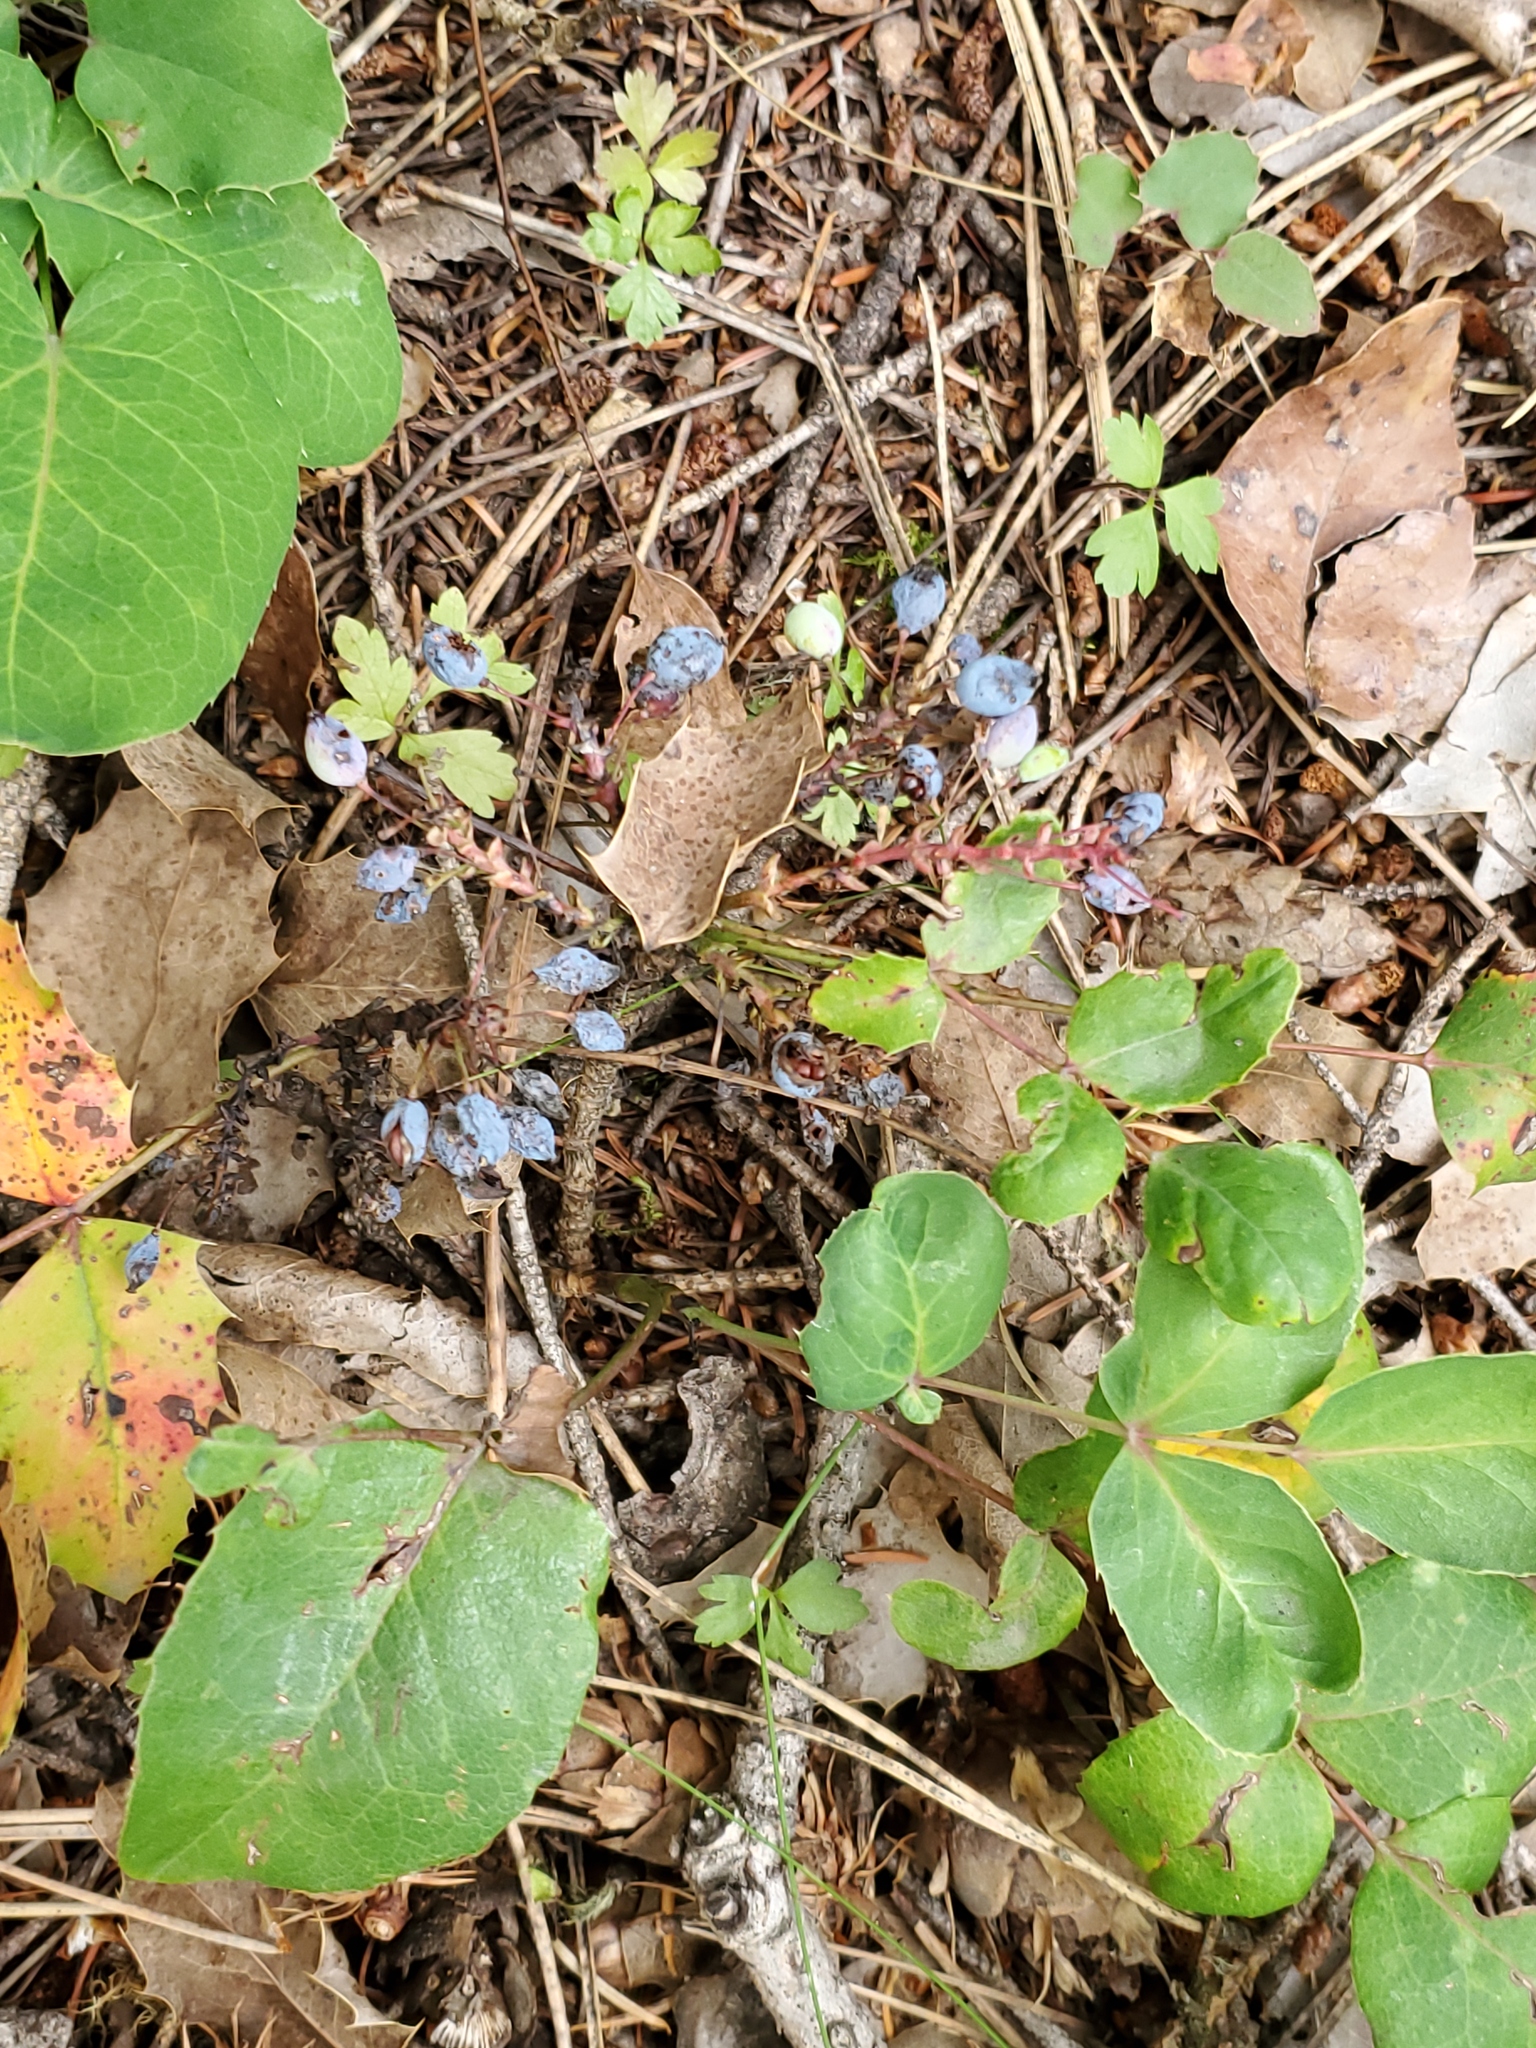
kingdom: Plantae
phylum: Tracheophyta
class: Magnoliopsida
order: Ranunculales
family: Berberidaceae
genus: Mahonia
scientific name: Mahonia repens
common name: Creeping oregon-grape
